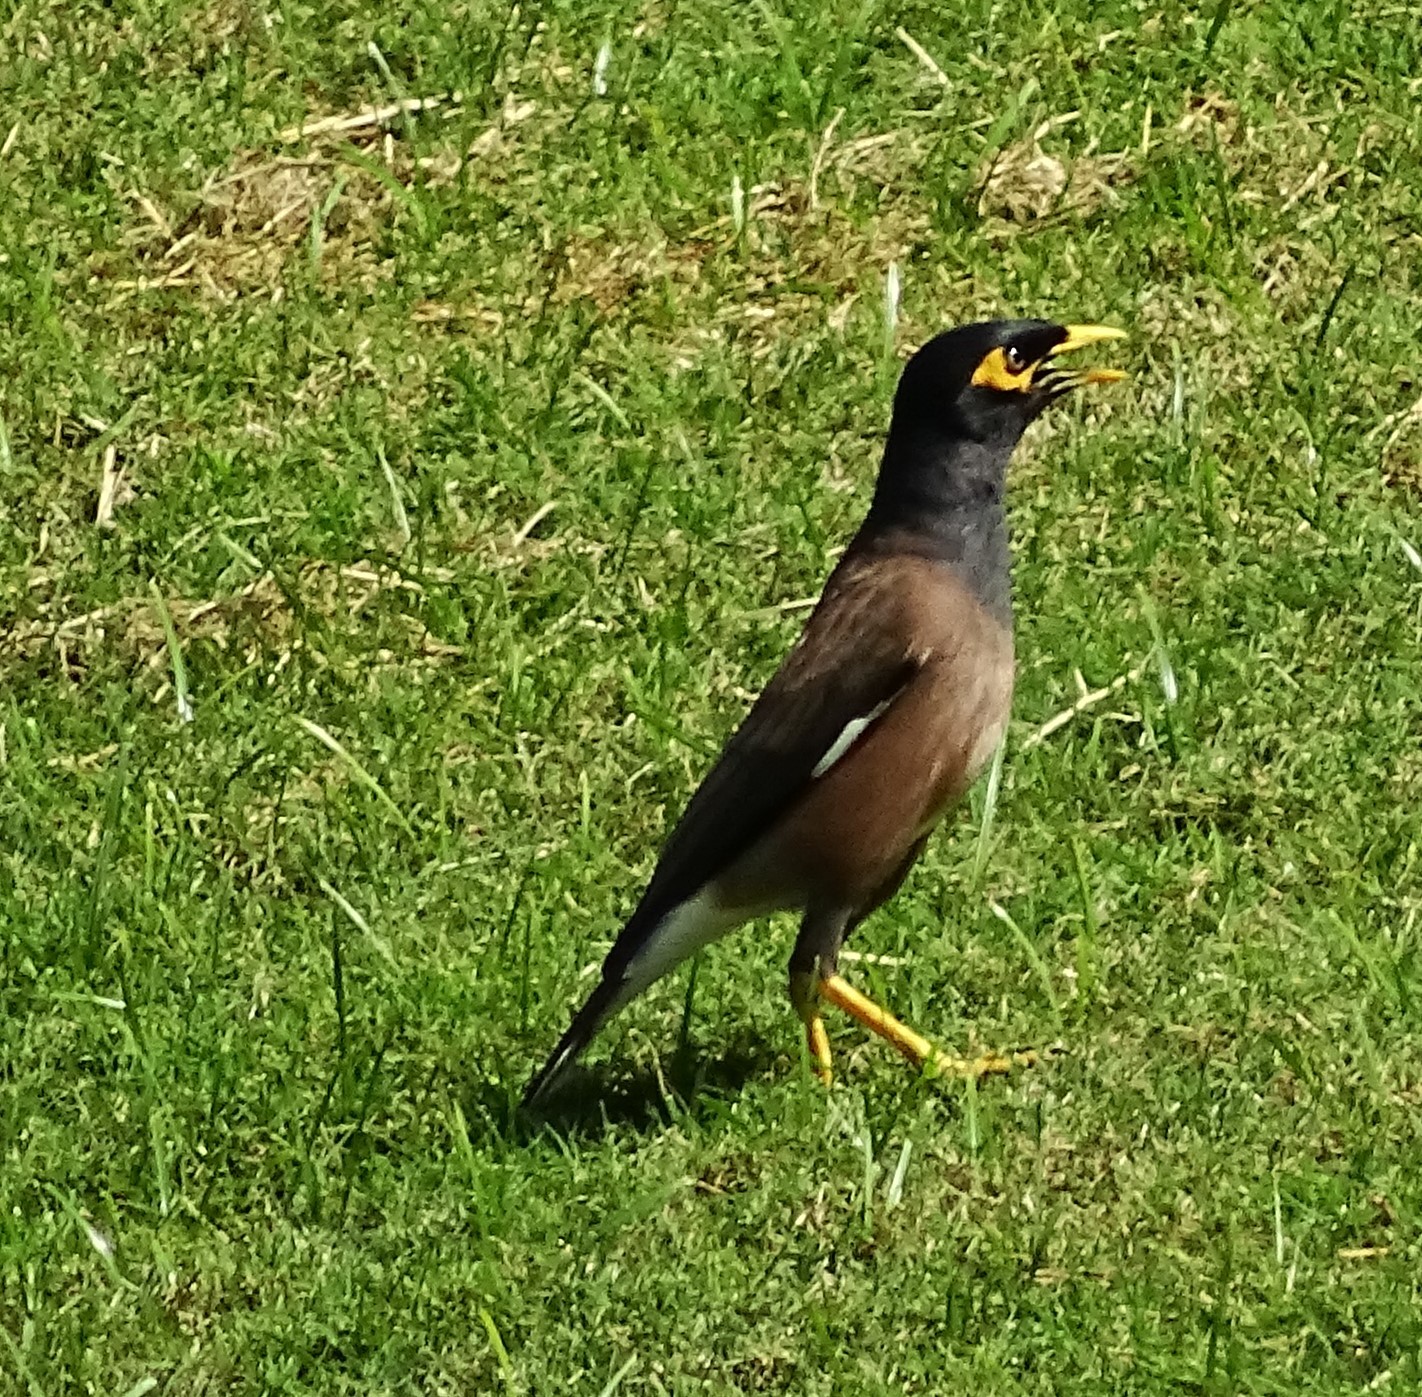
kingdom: Animalia
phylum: Chordata
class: Aves
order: Passeriformes
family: Sturnidae
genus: Acridotheres
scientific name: Acridotheres tristis
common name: Common myna
